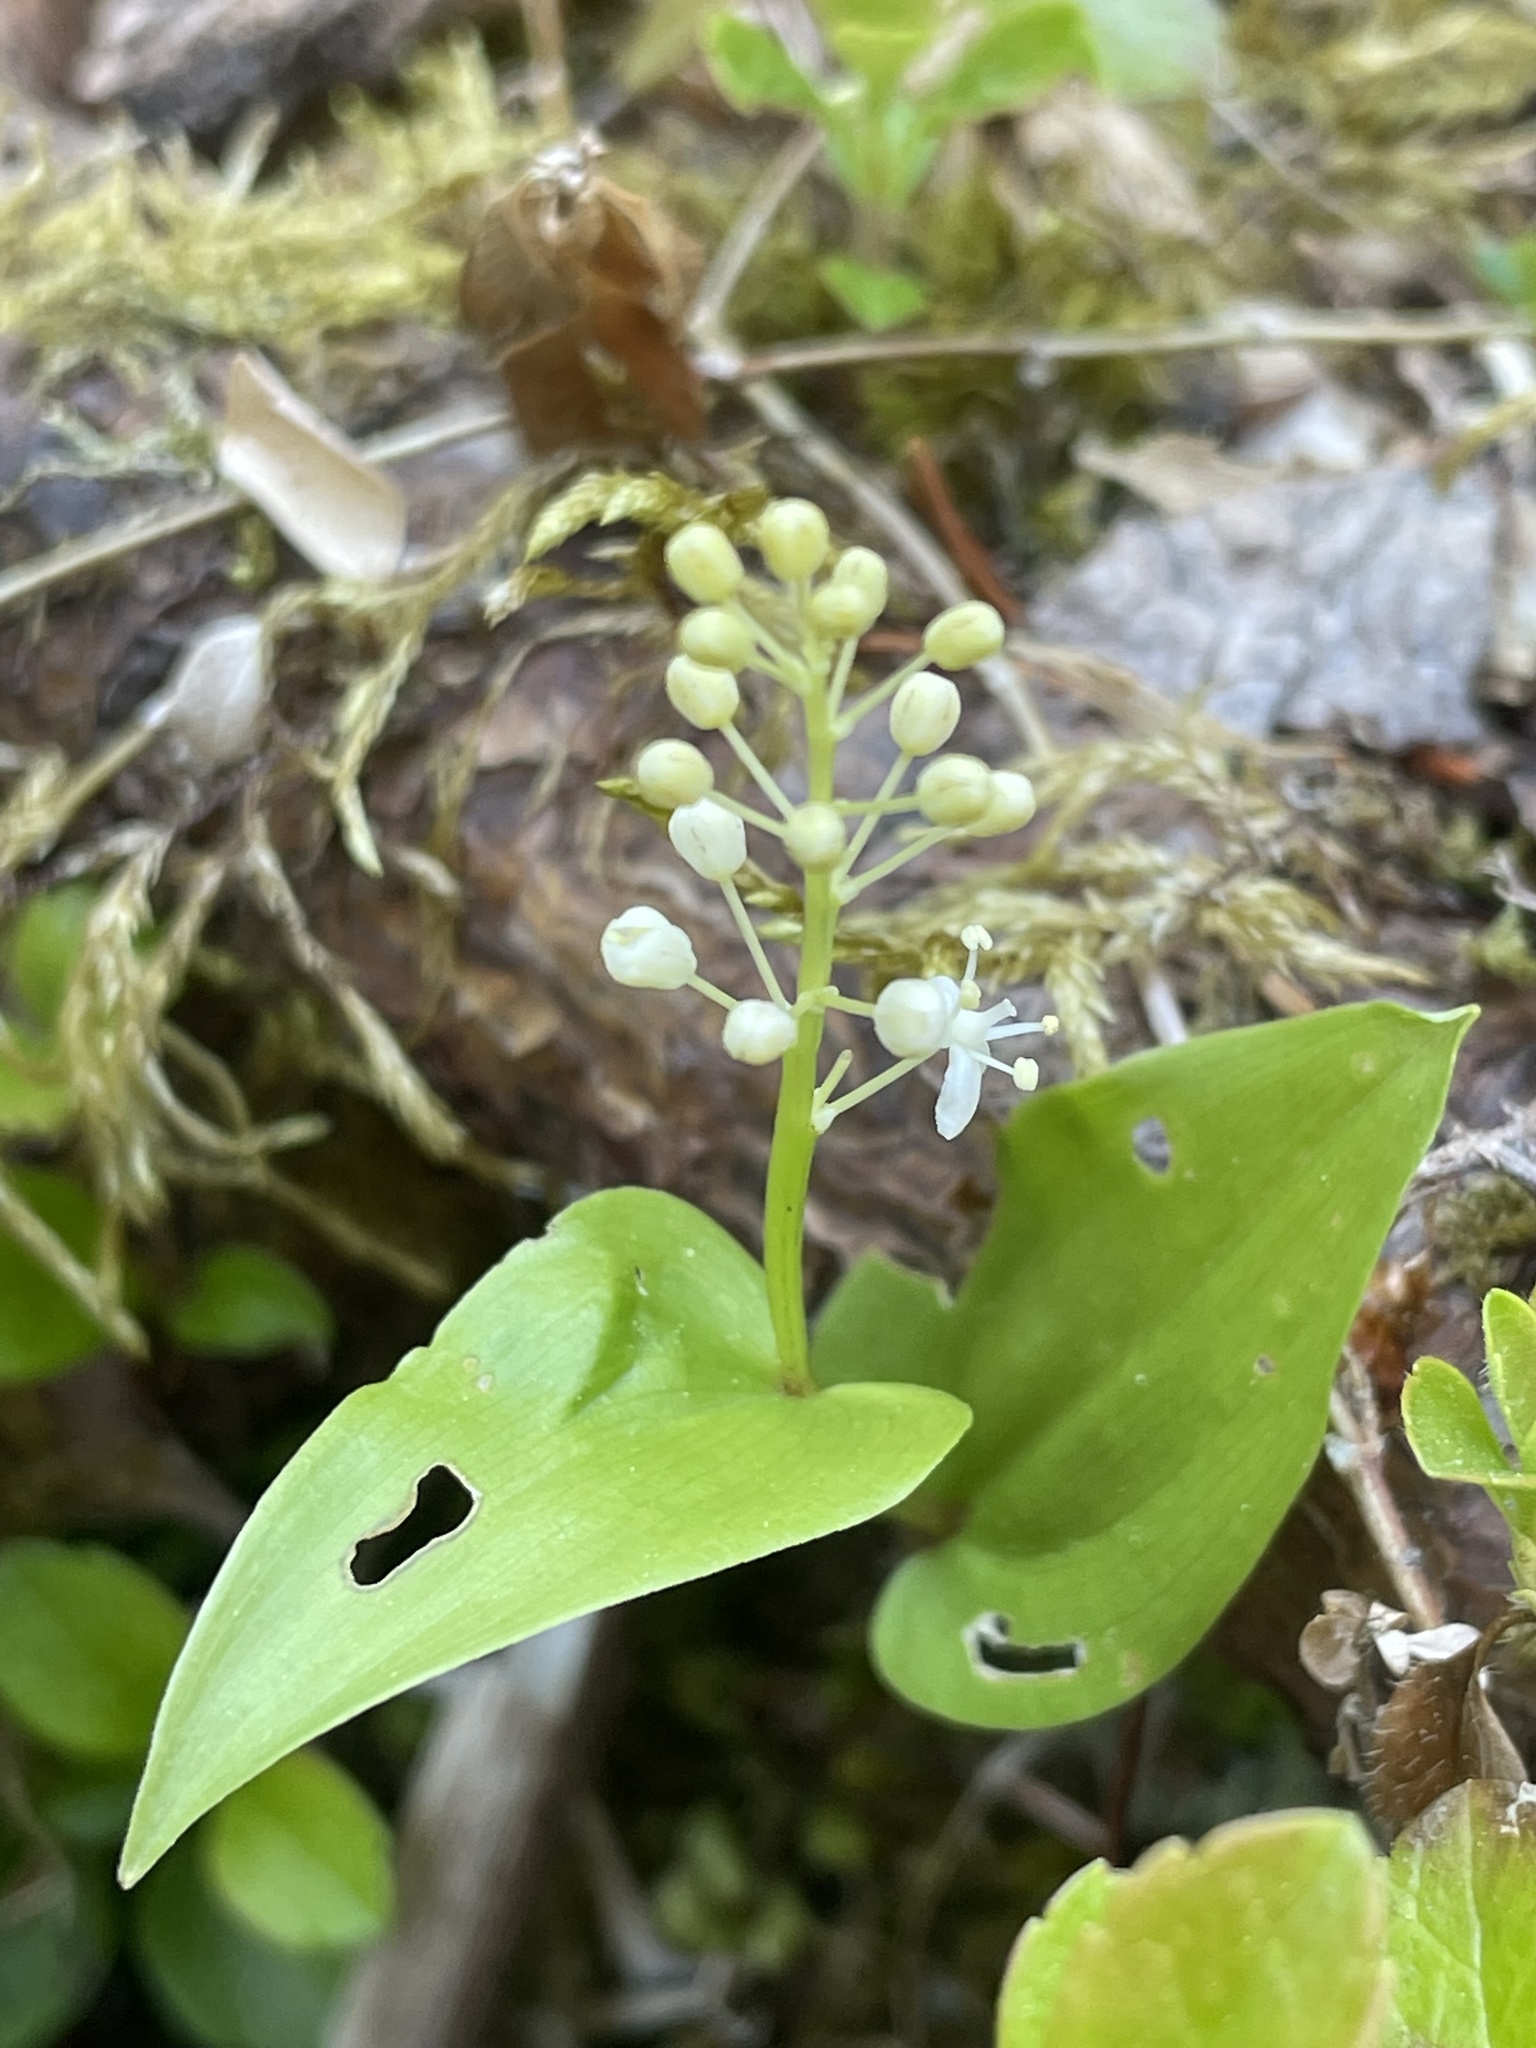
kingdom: Plantae
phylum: Tracheophyta
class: Liliopsida
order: Asparagales
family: Asparagaceae
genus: Maianthemum
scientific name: Maianthemum canadense
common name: False lily-of-the-valley
